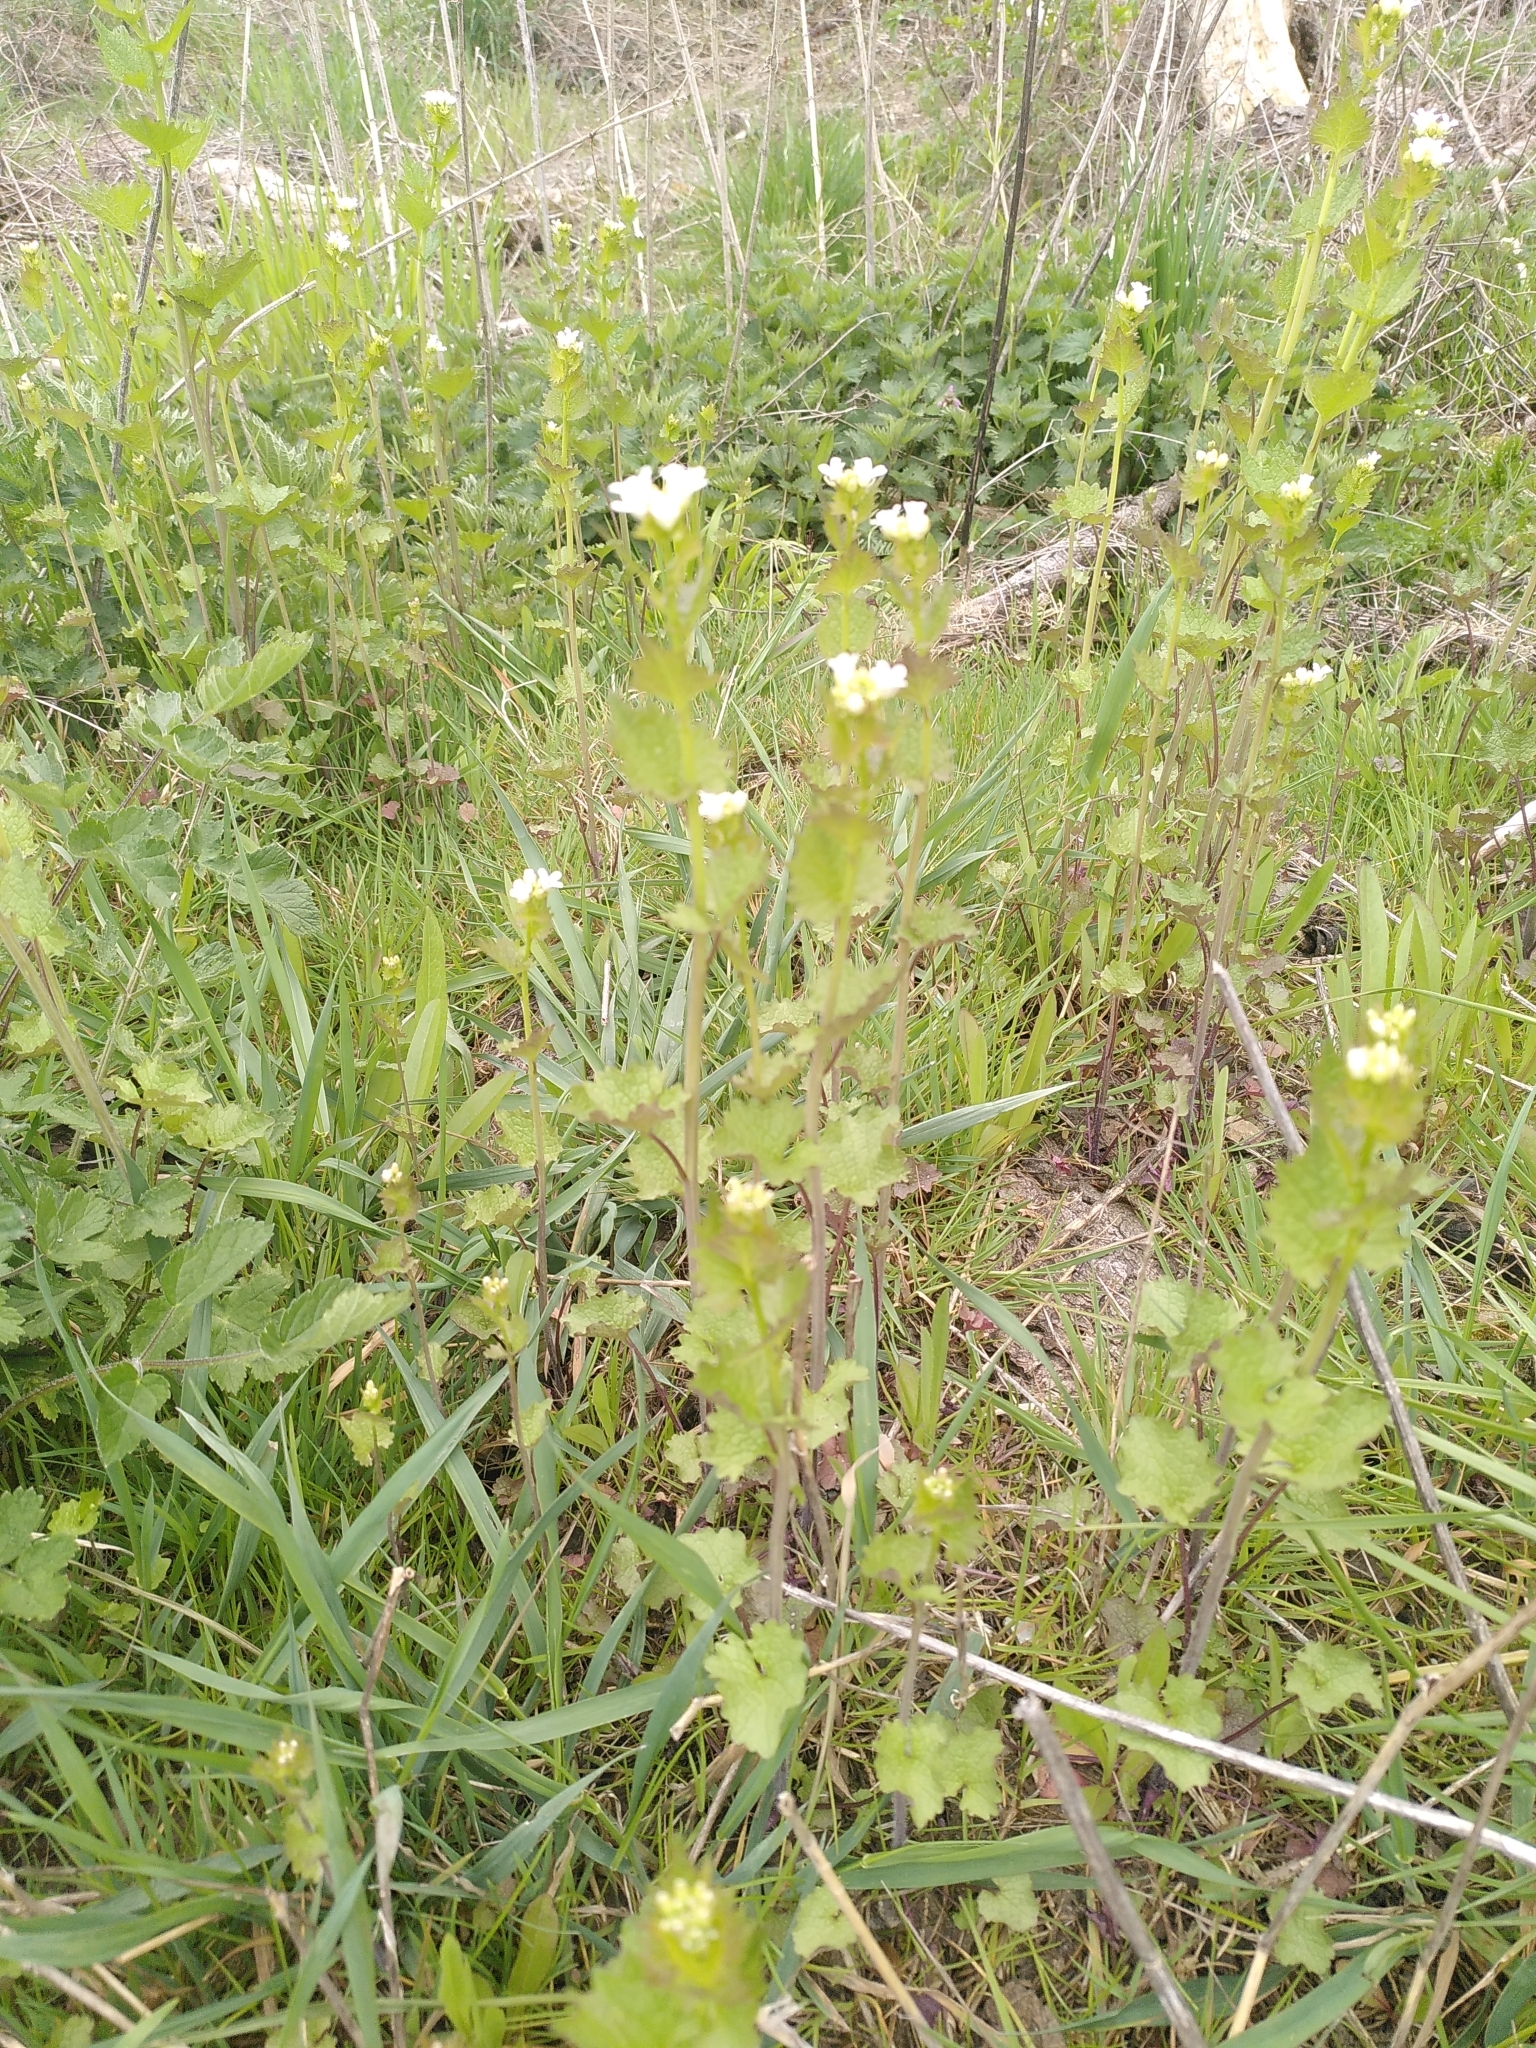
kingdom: Plantae
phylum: Tracheophyta
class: Magnoliopsida
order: Brassicales
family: Brassicaceae
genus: Alliaria
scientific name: Alliaria petiolata
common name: Garlic mustard
